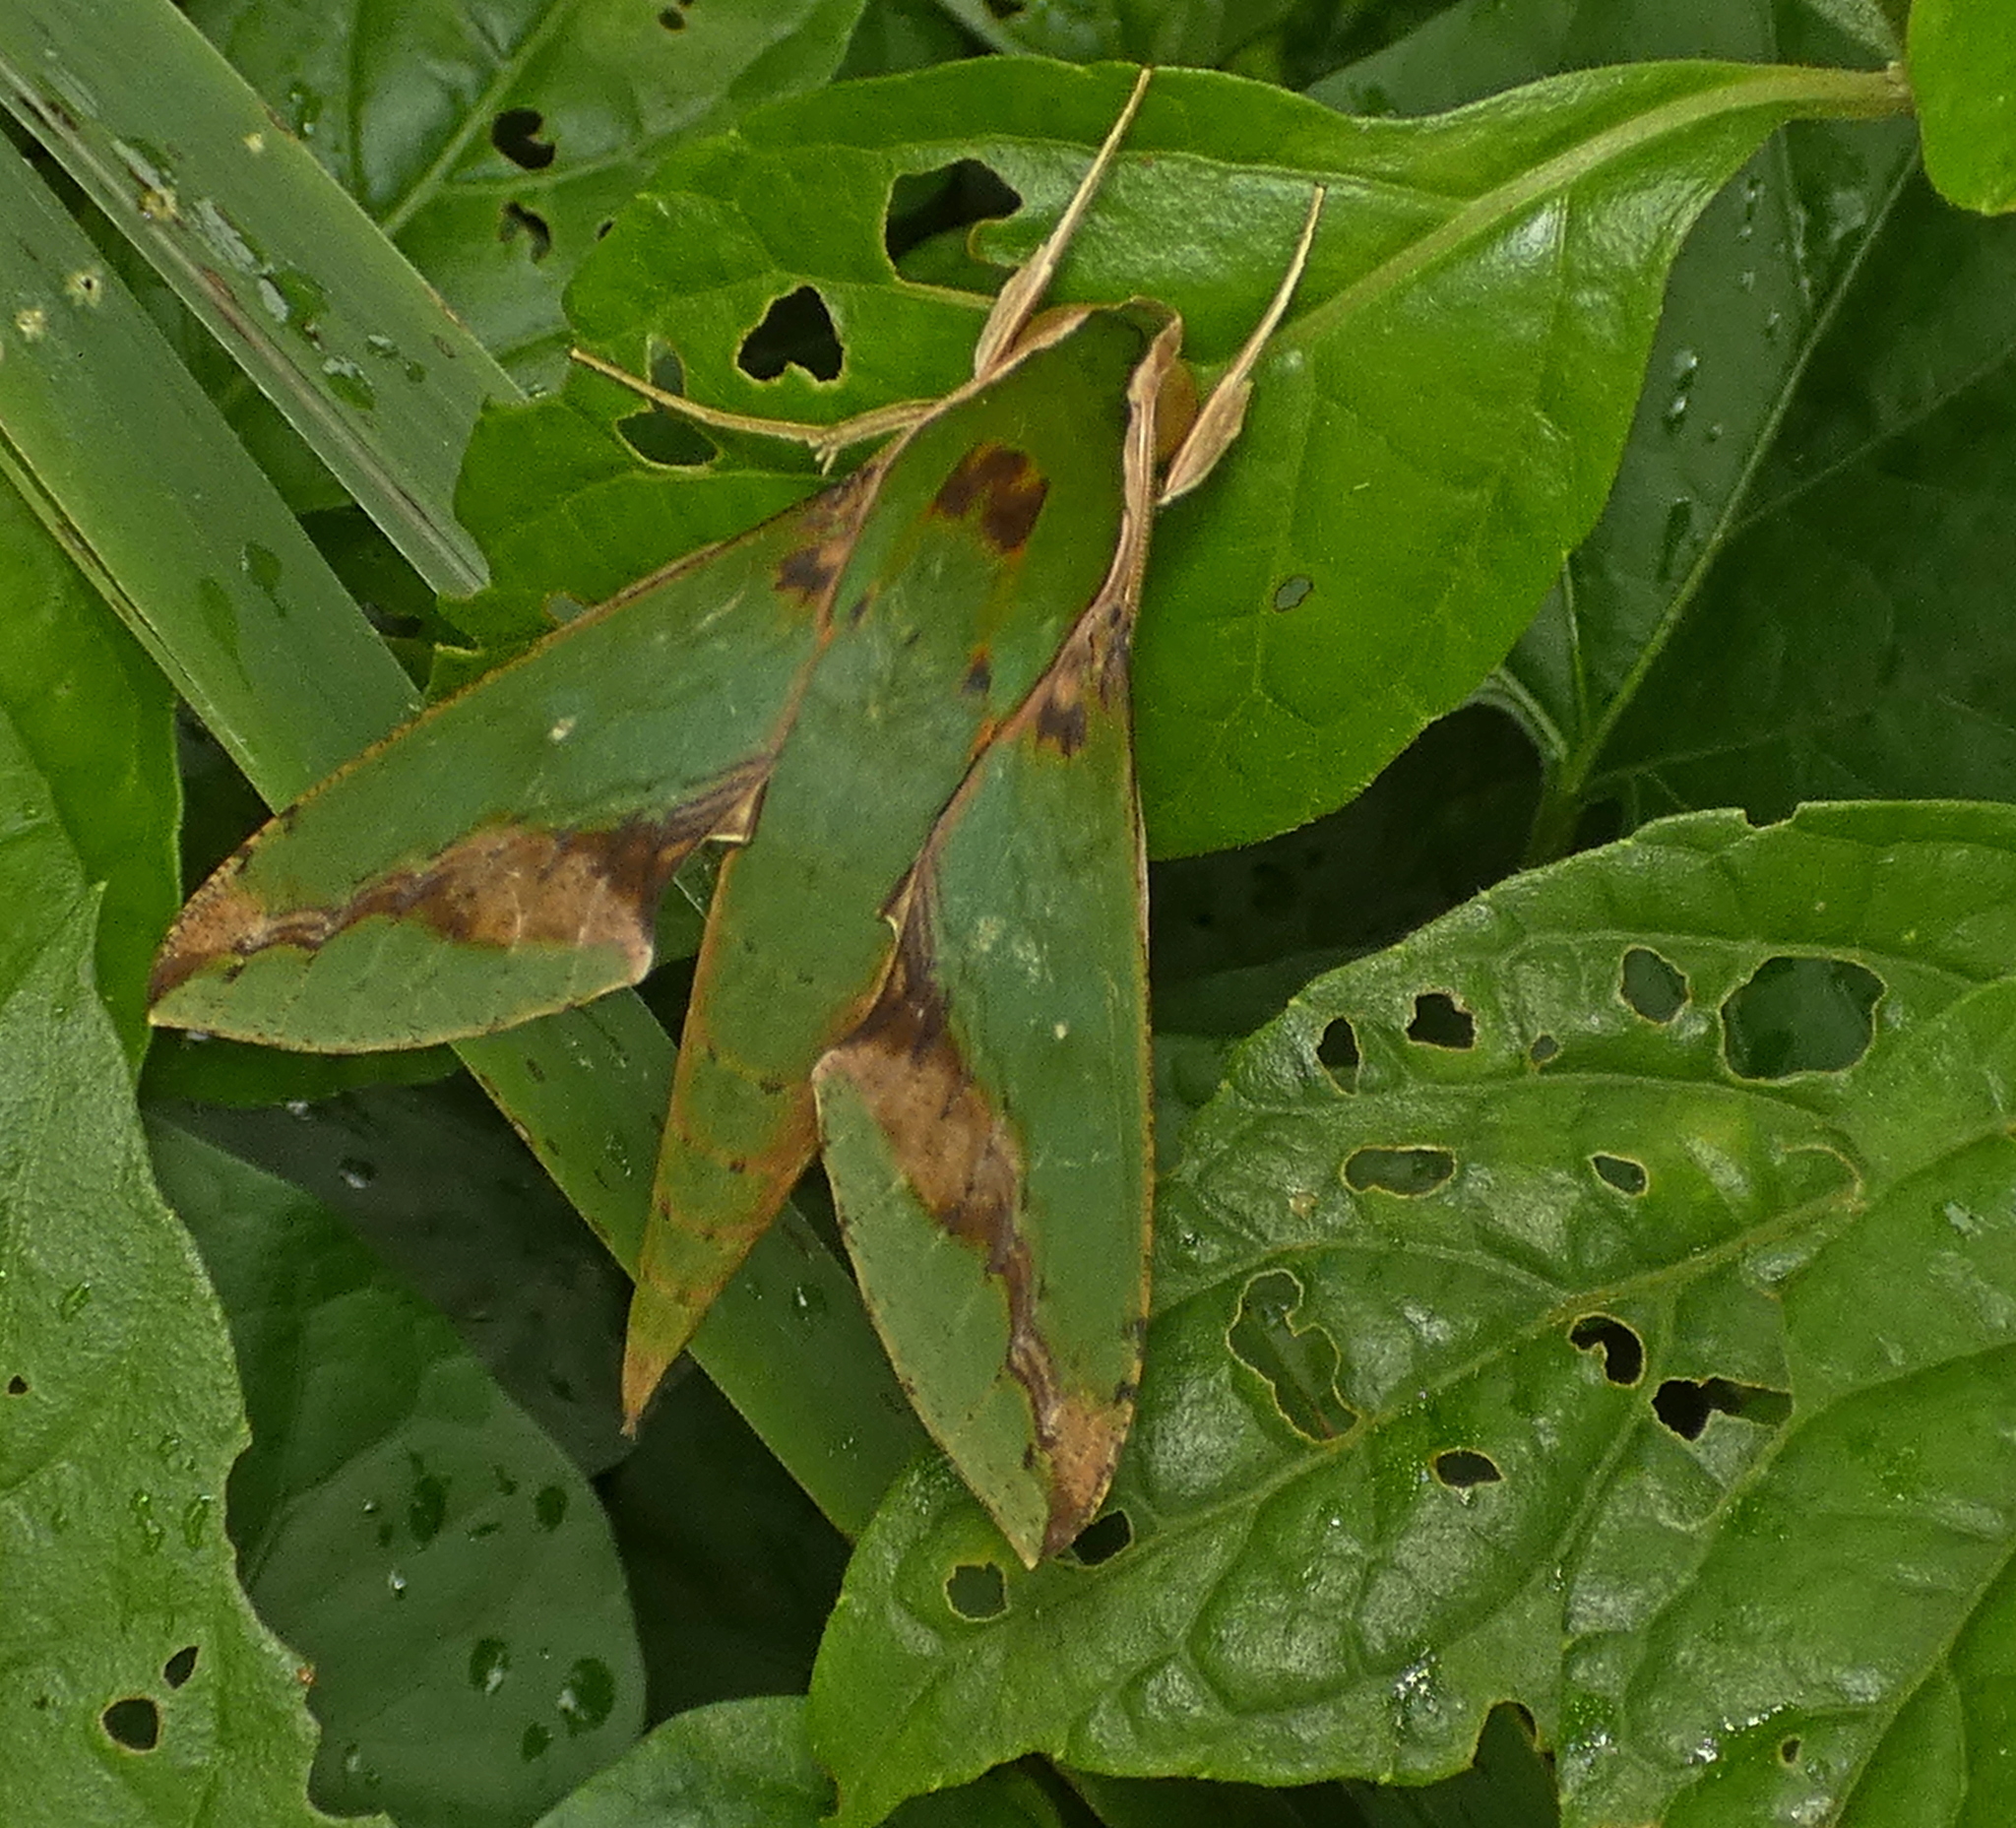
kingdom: Animalia
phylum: Arthropoda
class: Insecta
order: Lepidoptera
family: Sphingidae
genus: Xylophanes
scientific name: Xylophanes chiron
